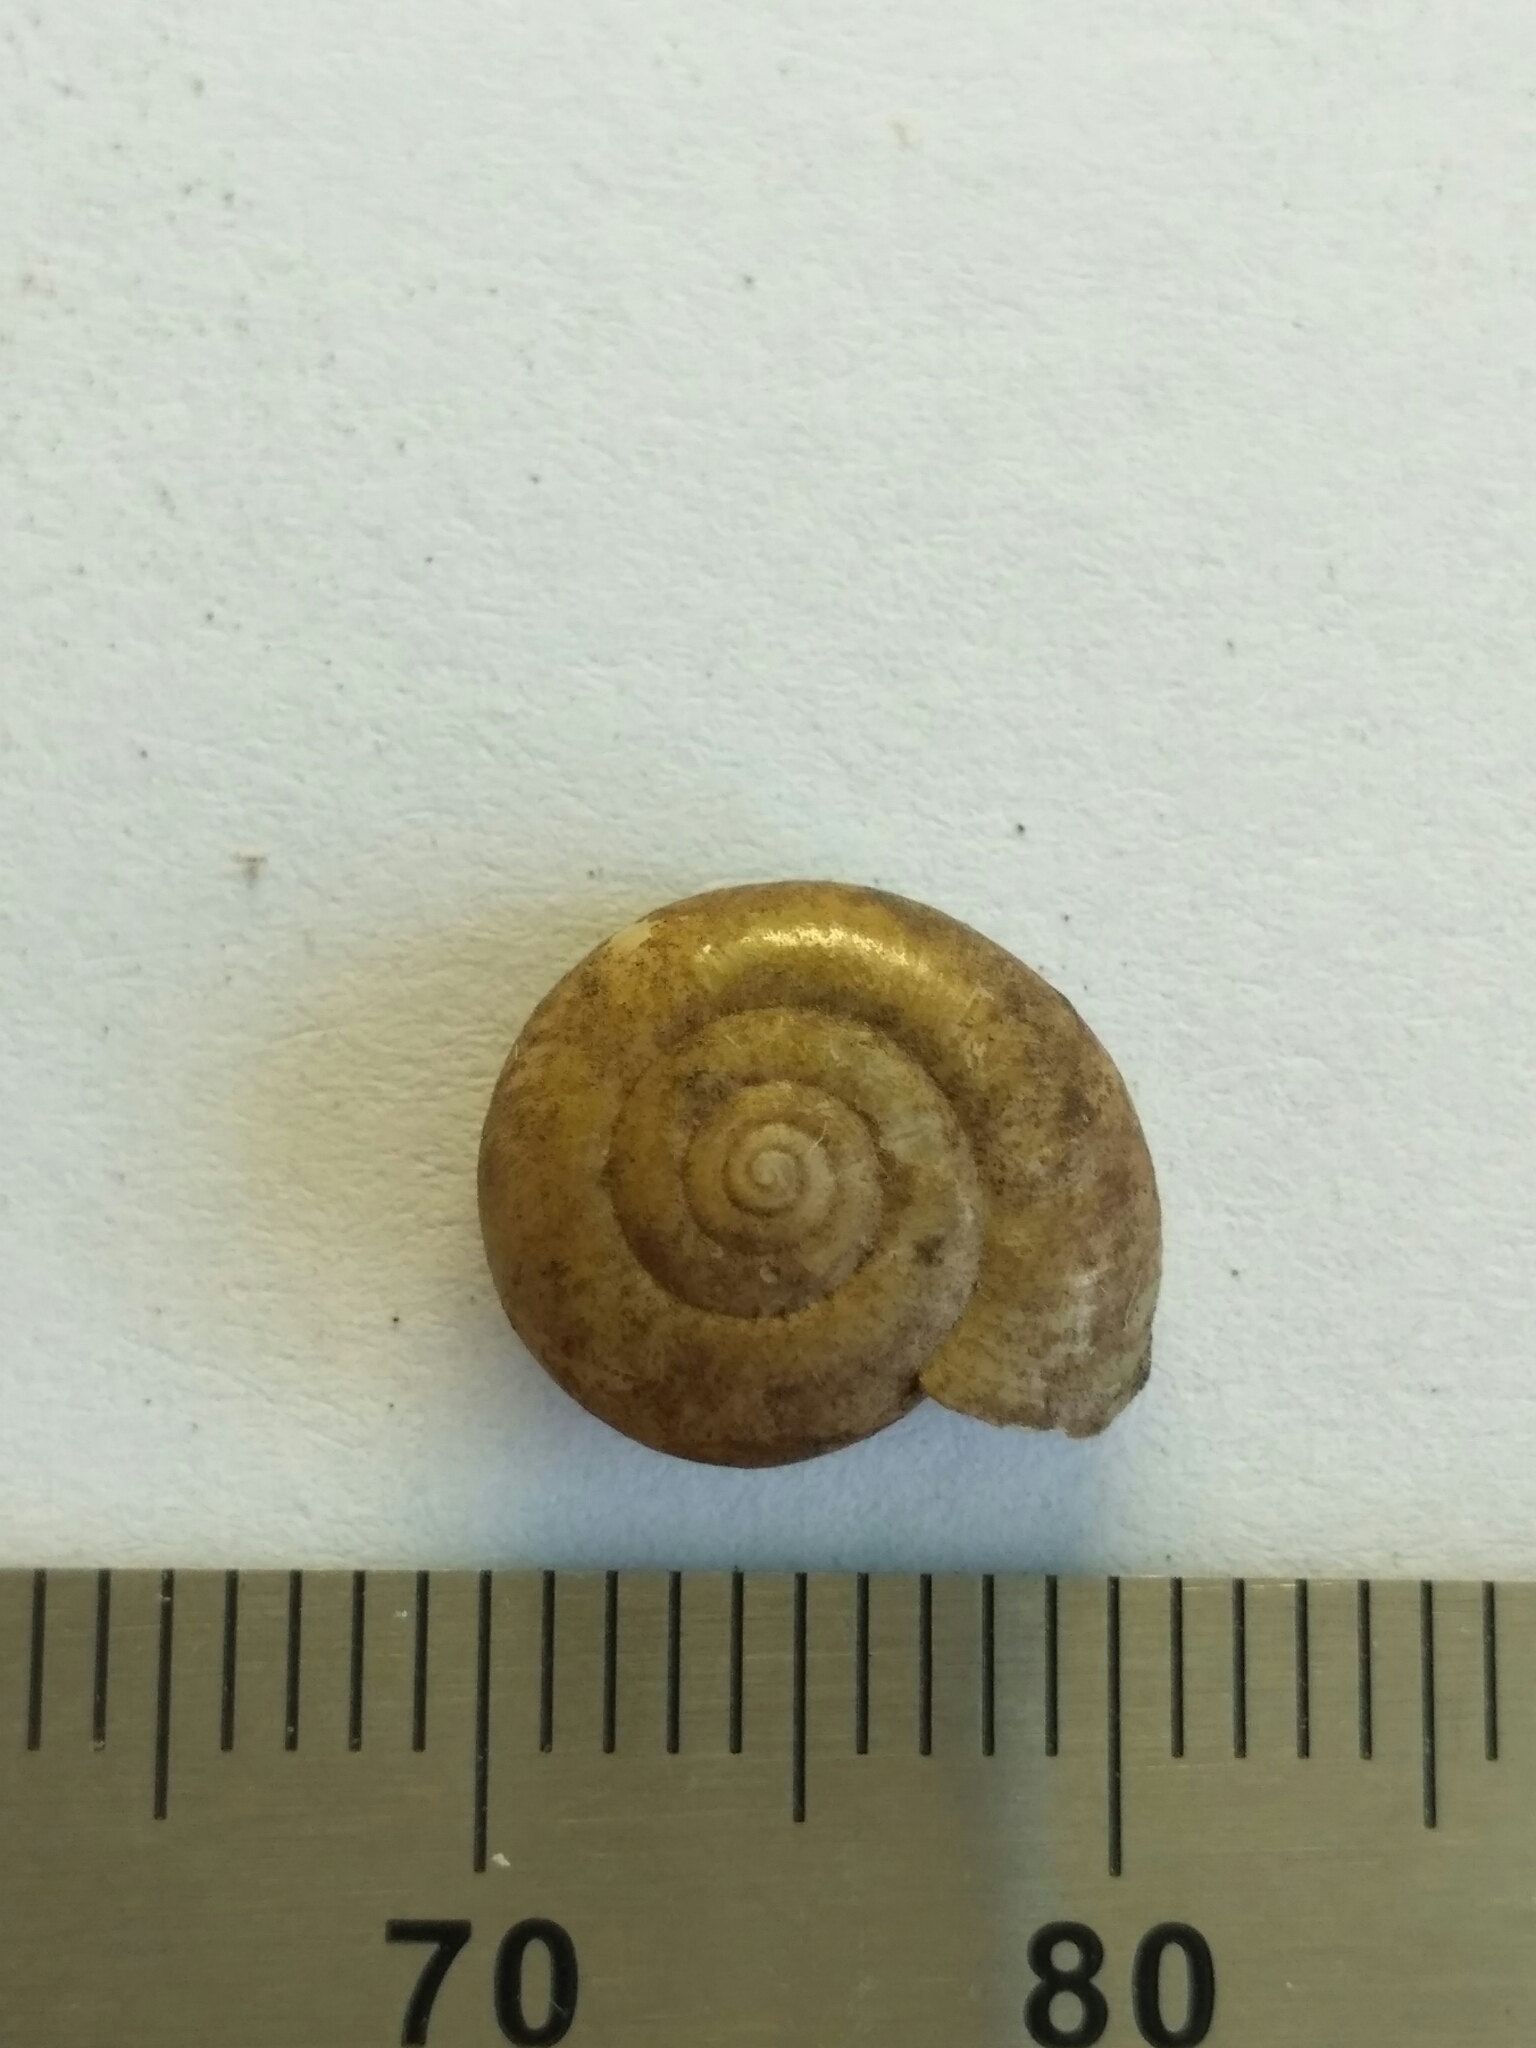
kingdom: Animalia
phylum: Mollusca
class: Gastropoda
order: Stylommatophora
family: Oxychilidae
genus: Oxychilus
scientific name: Oxychilus draparnaudi
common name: Draparnaud's glass snail
